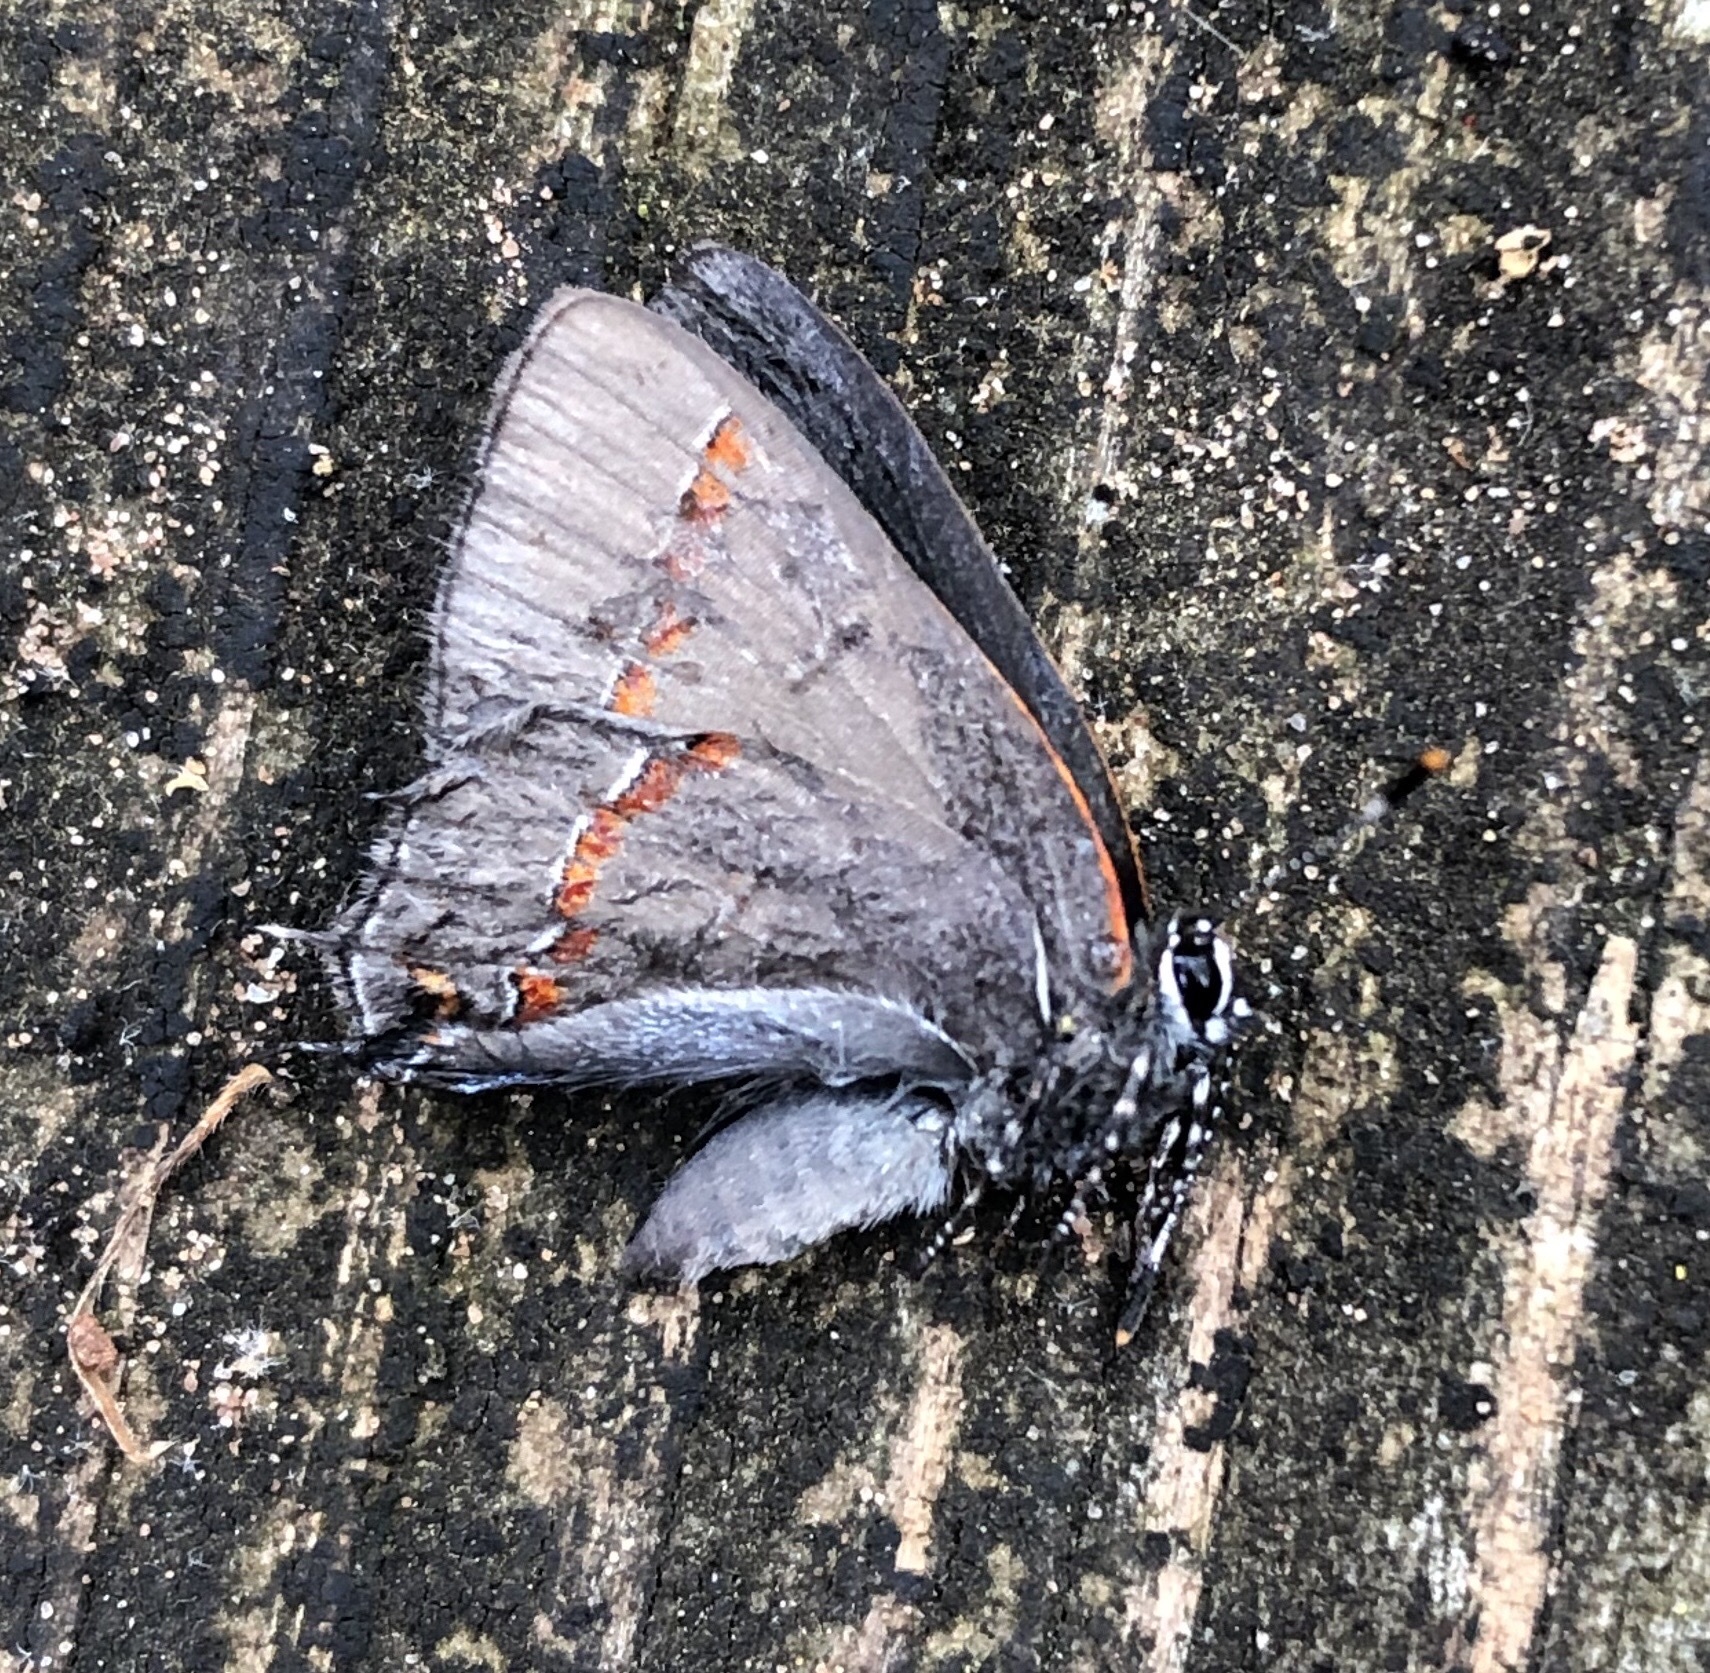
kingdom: Animalia
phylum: Arthropoda
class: Insecta
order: Lepidoptera
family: Lycaenidae
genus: Calycopis
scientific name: Calycopis cecrops
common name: Red-banded hairstreak
